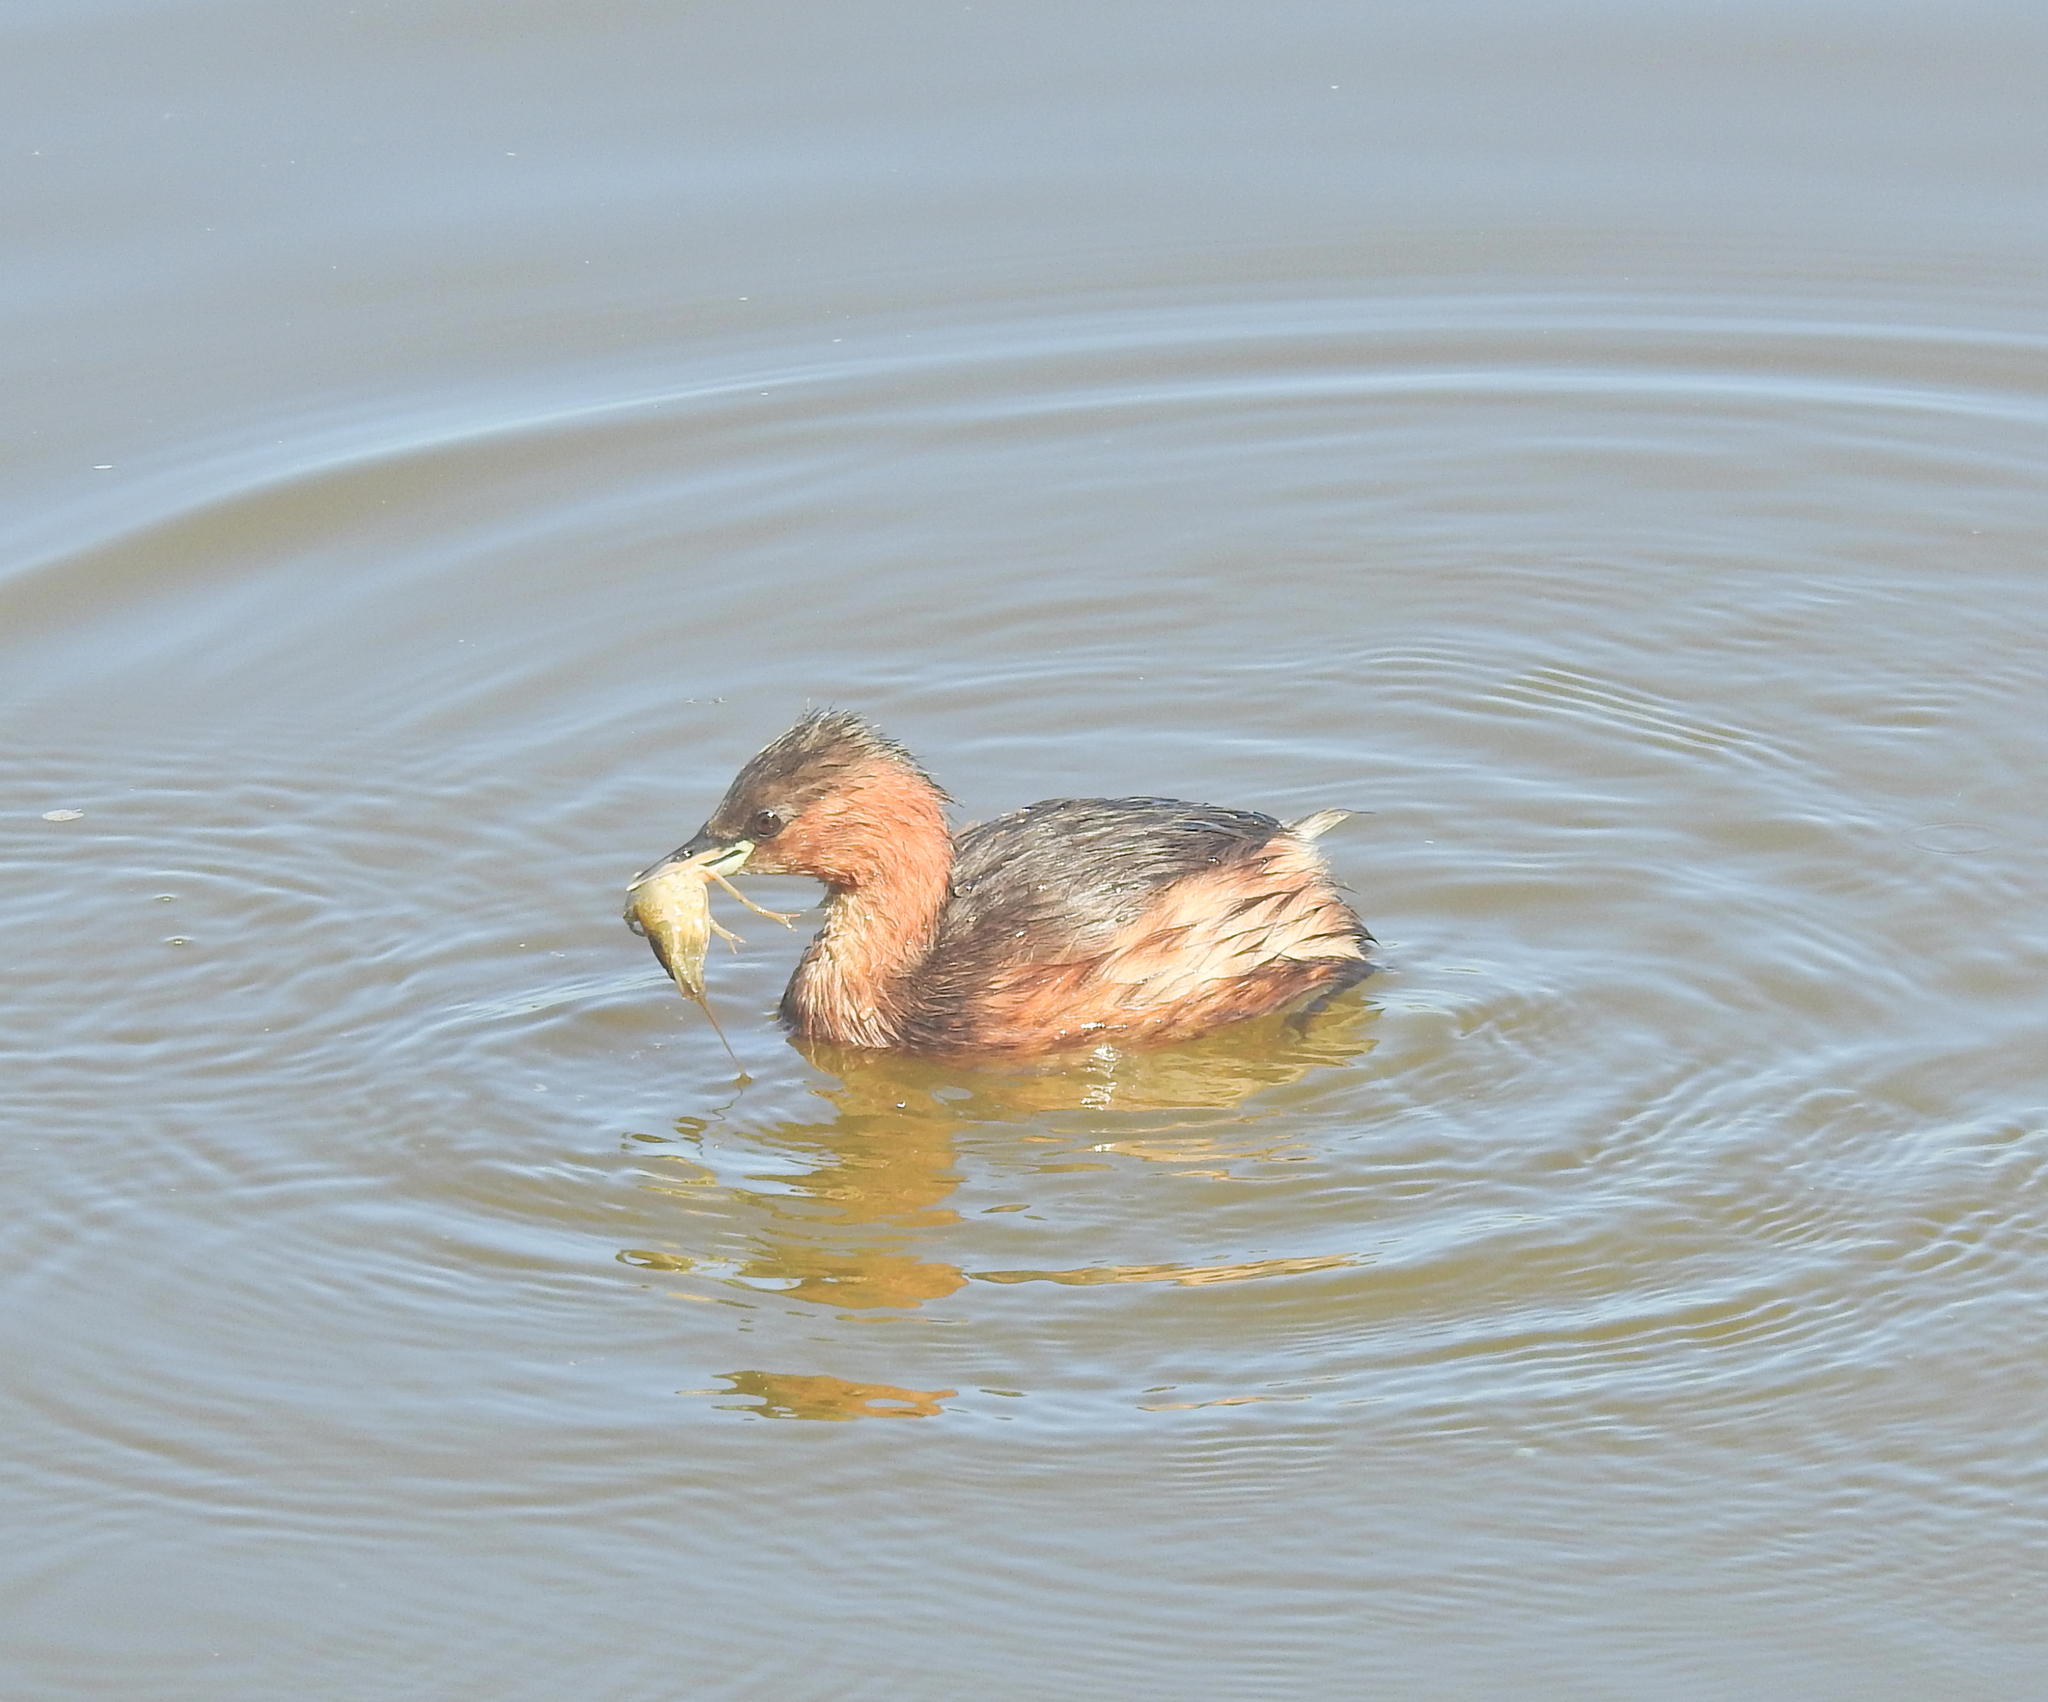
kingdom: Animalia
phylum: Chordata
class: Aves
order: Podicipediformes
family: Podicipedidae
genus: Tachybaptus
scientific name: Tachybaptus ruficollis
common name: Little grebe
